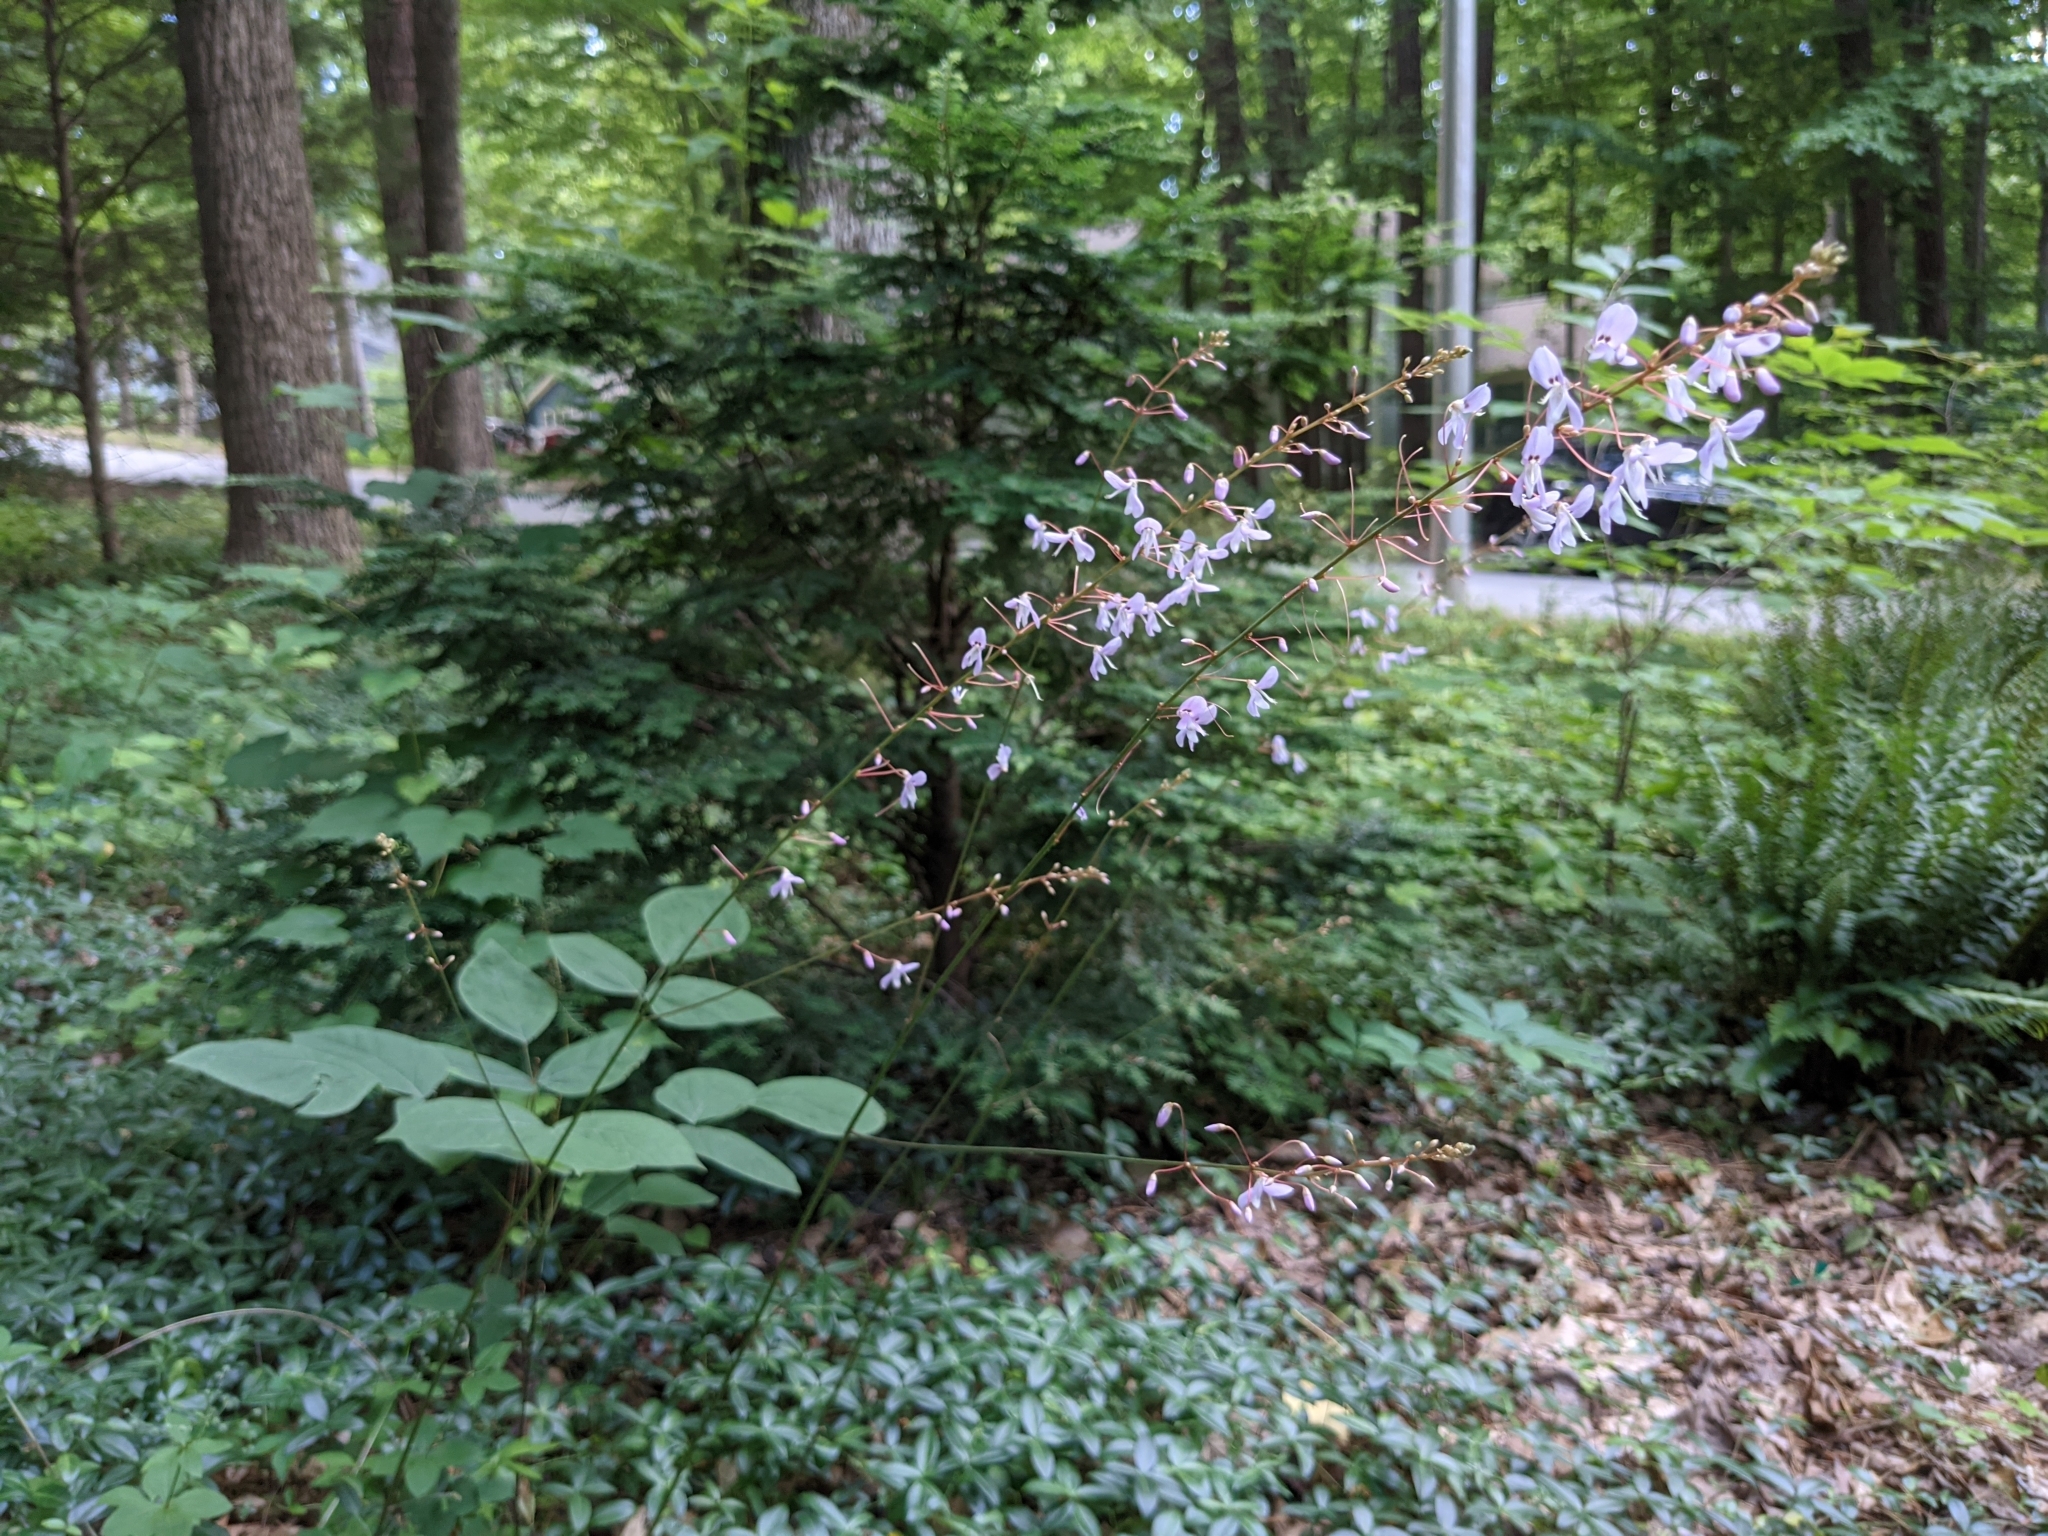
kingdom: Plantae
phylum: Tracheophyta
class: Magnoliopsida
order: Fabales
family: Fabaceae
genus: Hylodesmum
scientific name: Hylodesmum nudiflorum
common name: Bare-stemmed tick-trefoil
